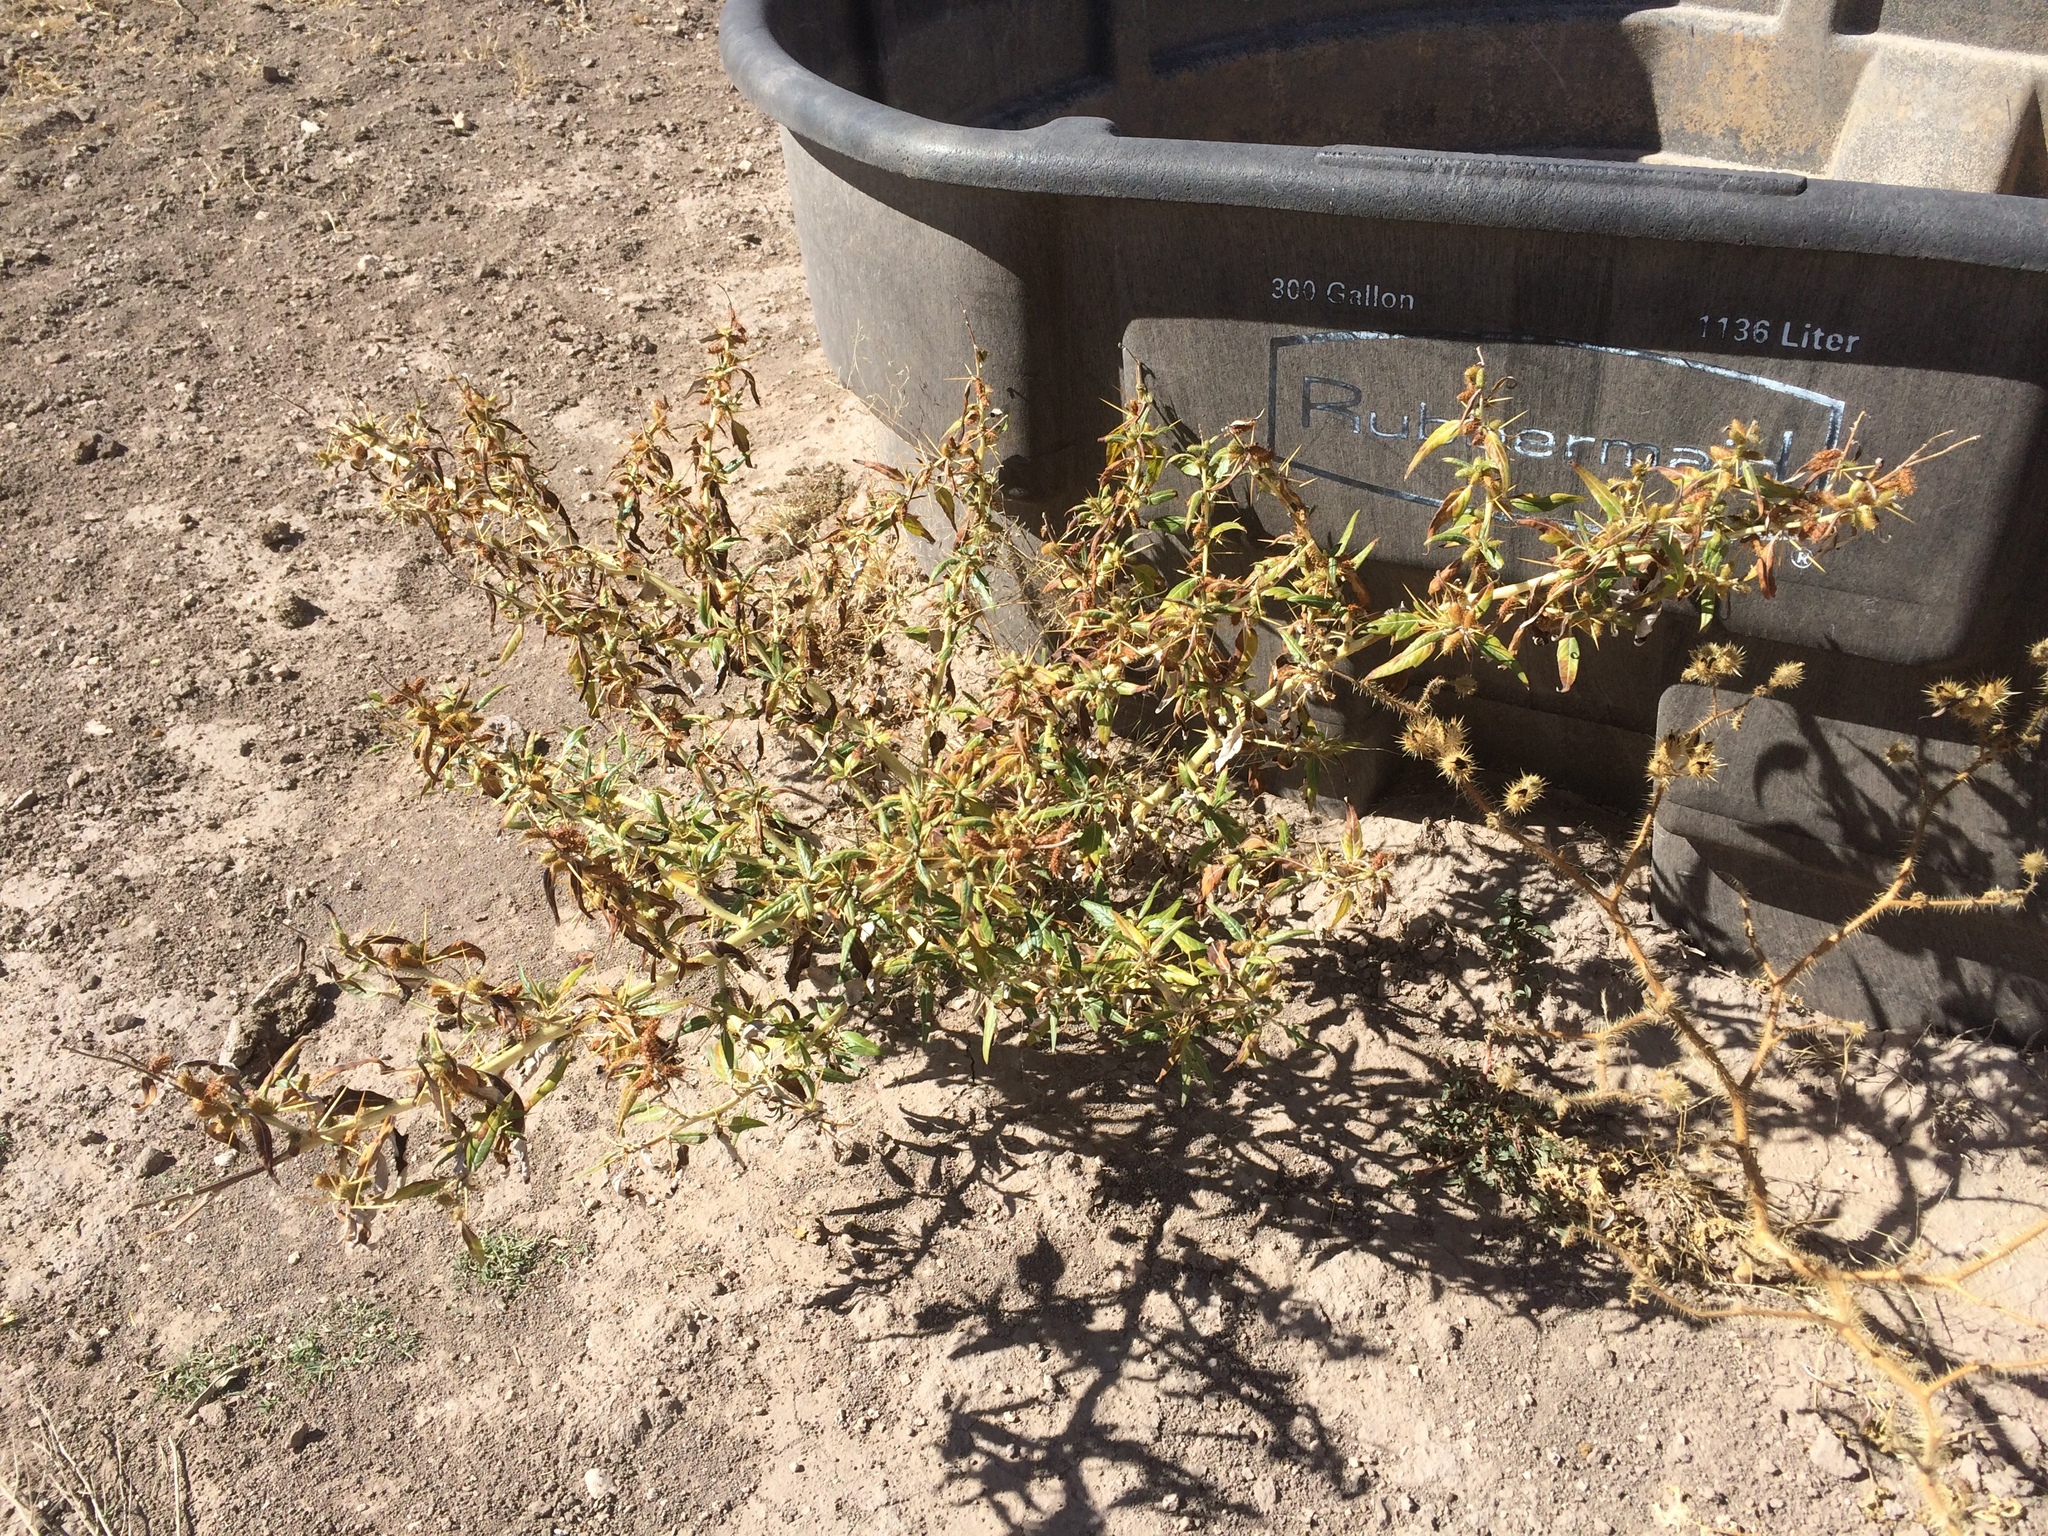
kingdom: Plantae
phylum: Tracheophyta
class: Magnoliopsida
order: Asterales
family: Asteraceae
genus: Xanthium
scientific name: Xanthium spinosum
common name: Spiny cocklebur
